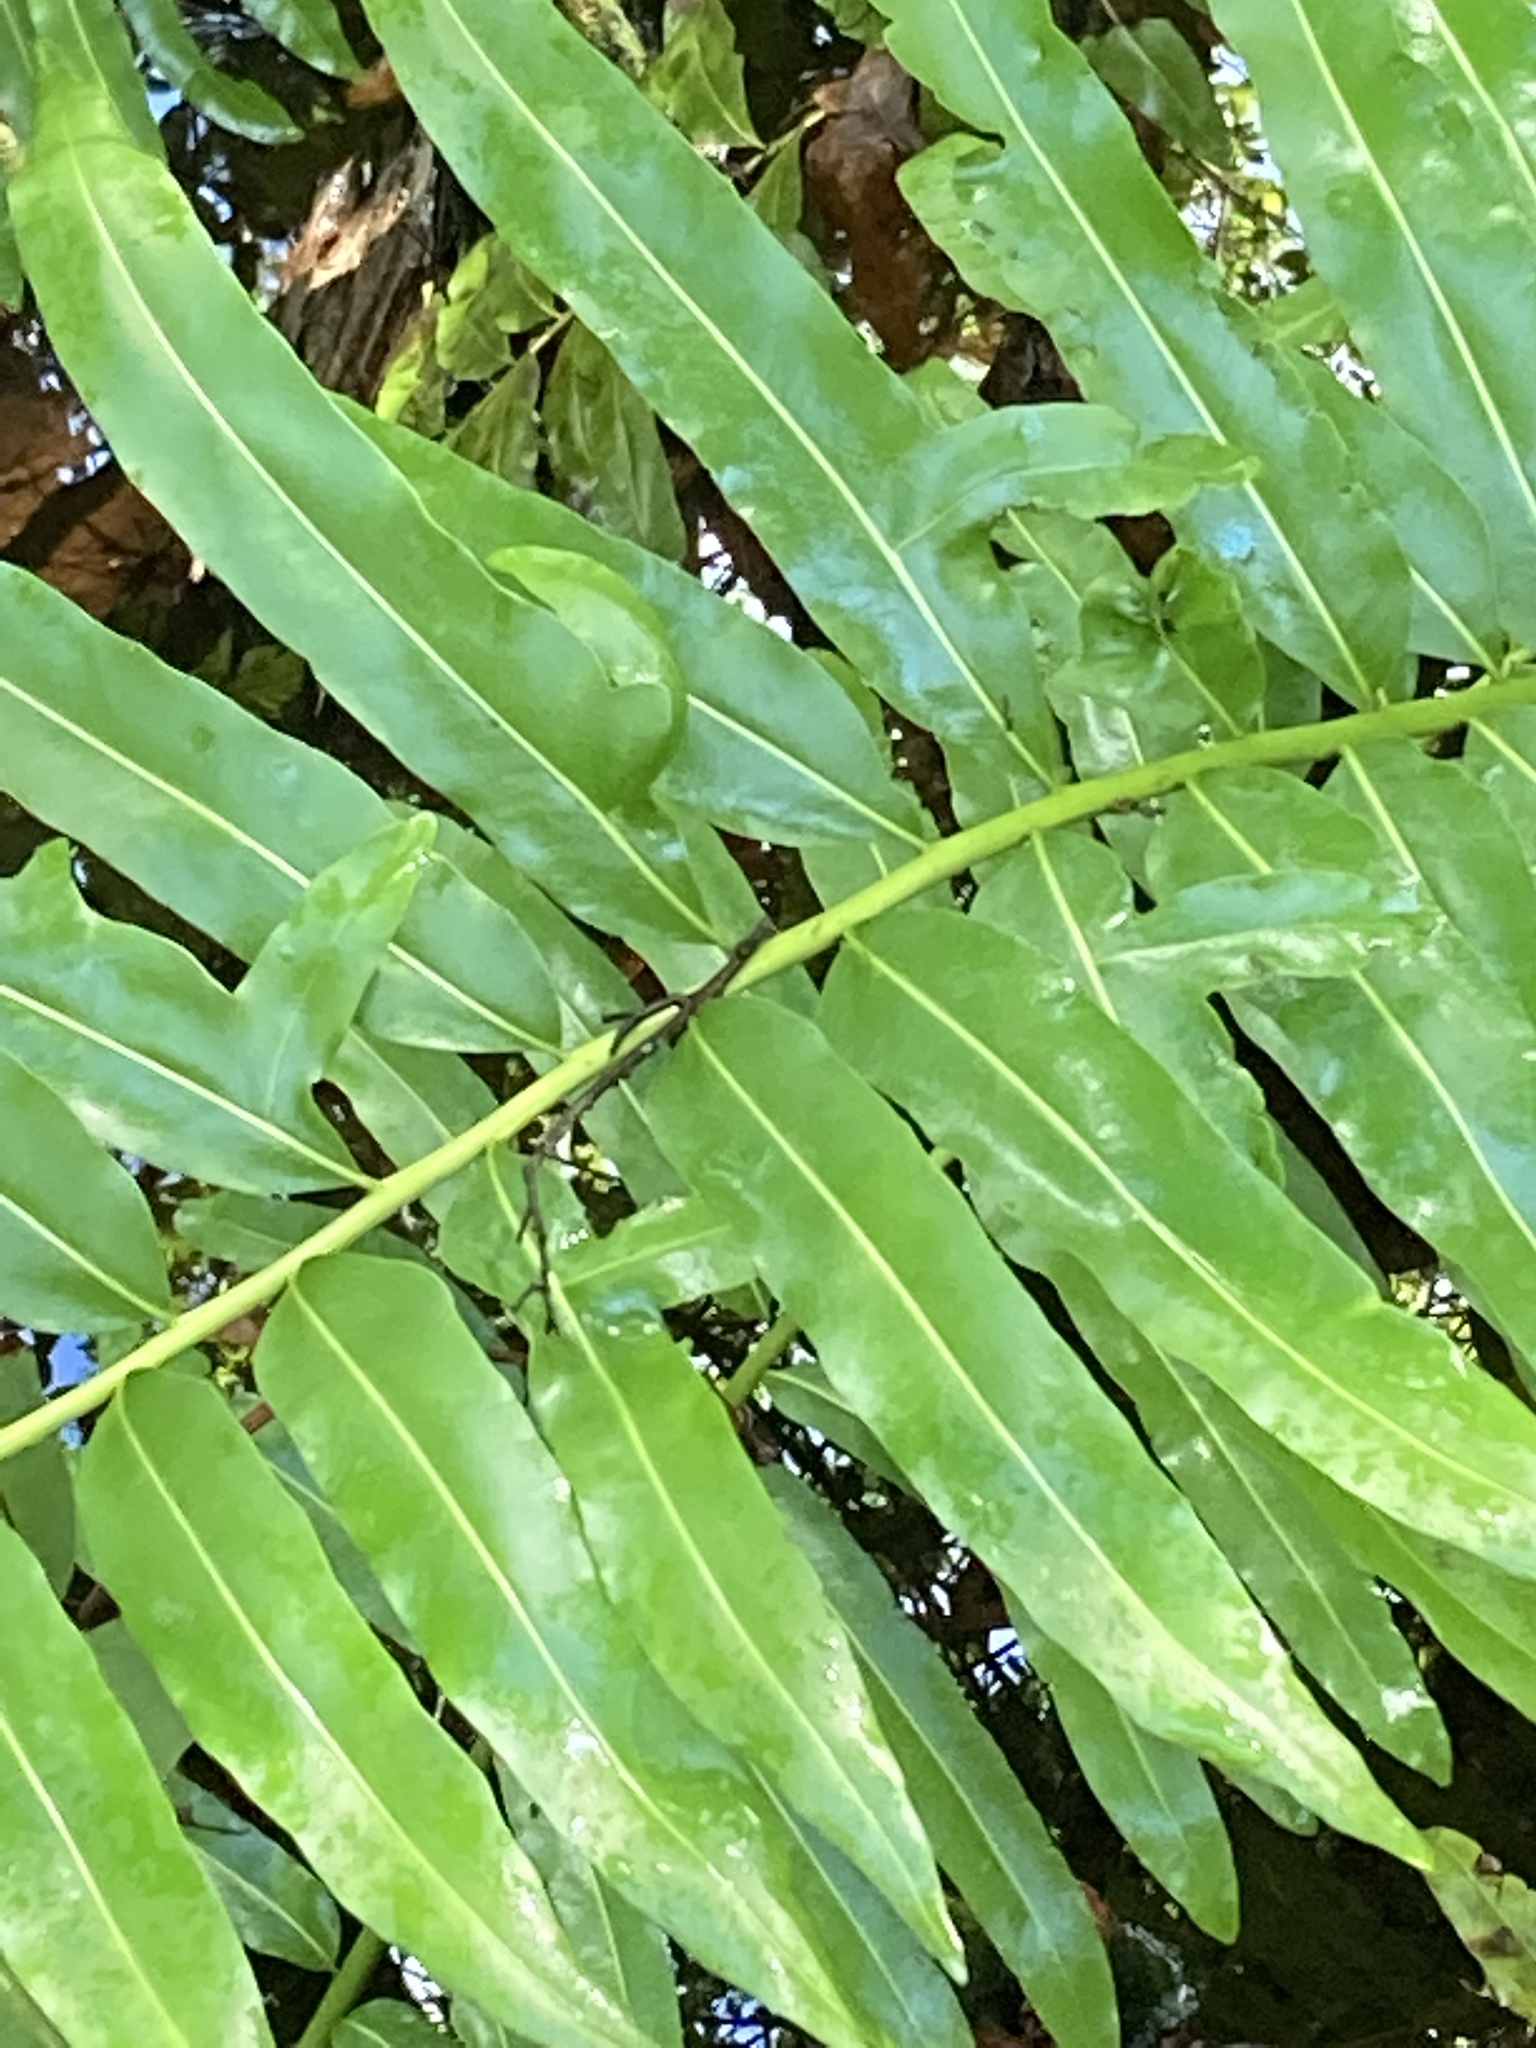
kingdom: Plantae
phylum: Tracheophyta
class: Polypodiopsida
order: Polypodiales
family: Pteridaceae
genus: Acrostichum
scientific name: Acrostichum danaeifolium
